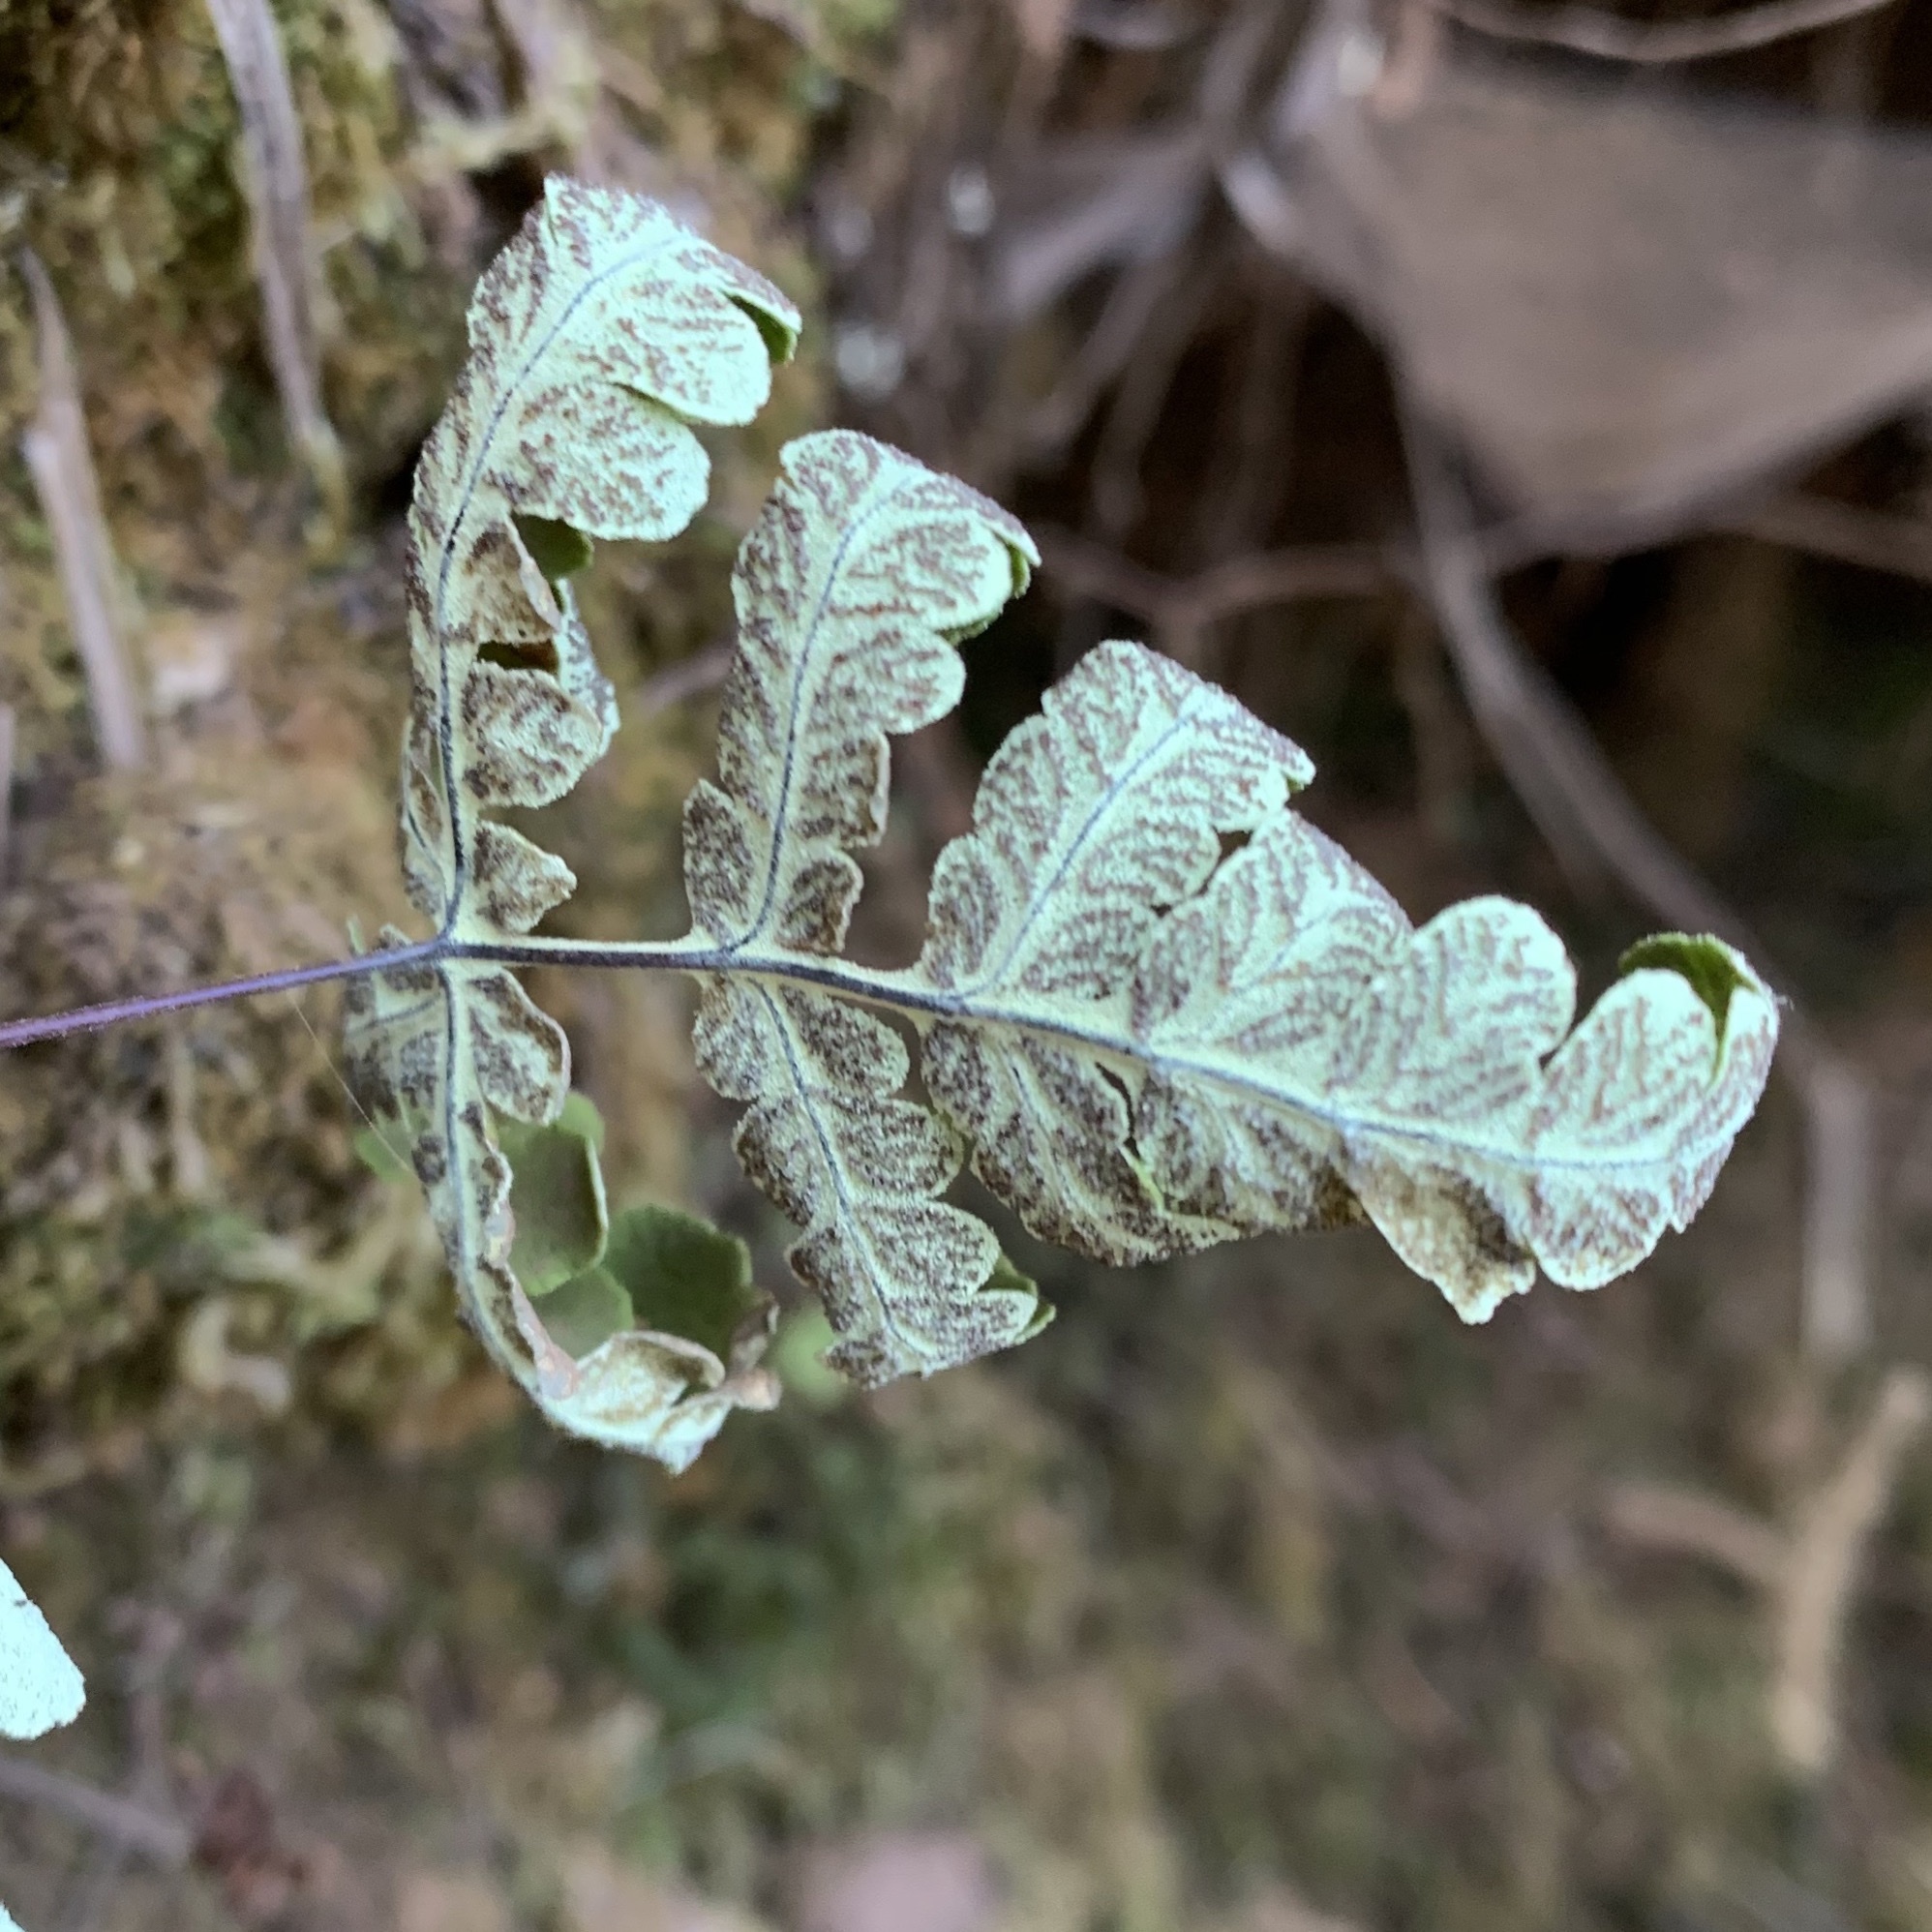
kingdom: Plantae
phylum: Tracheophyta
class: Polypodiopsida
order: Polypodiales
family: Pteridaceae
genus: Pentagramma
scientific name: Pentagramma triangularis
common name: Gold fern
